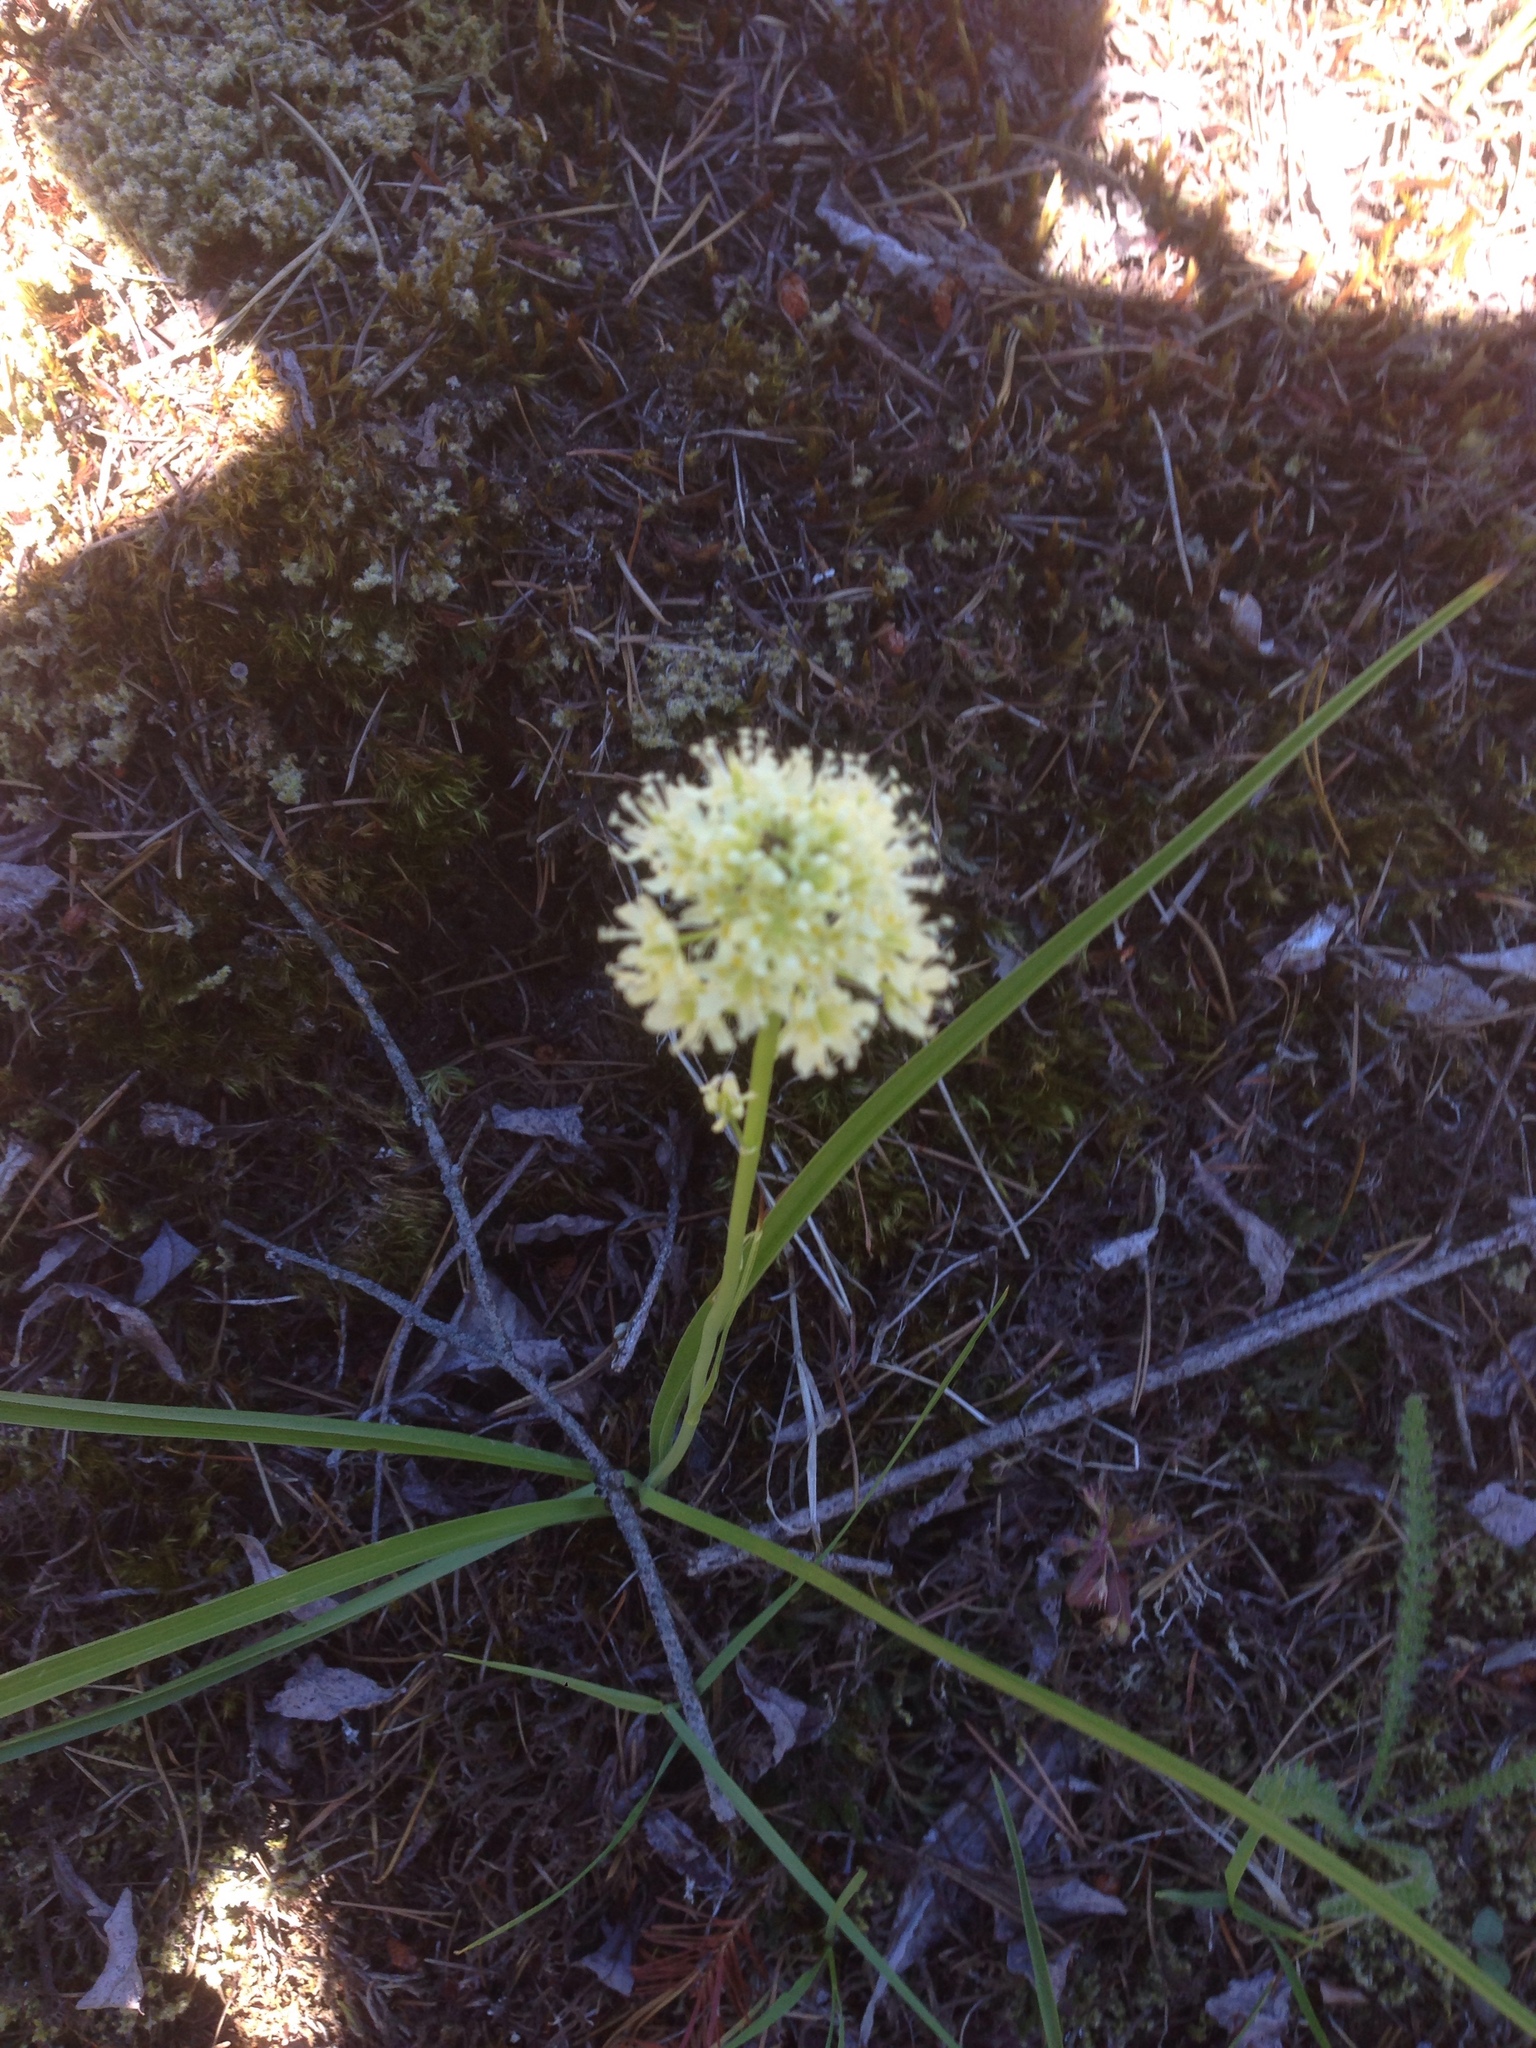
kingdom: Plantae
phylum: Tracheophyta
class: Liliopsida
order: Liliales
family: Melanthiaceae
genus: Toxicoscordion
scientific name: Toxicoscordion venenosum
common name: Meadow death camas
